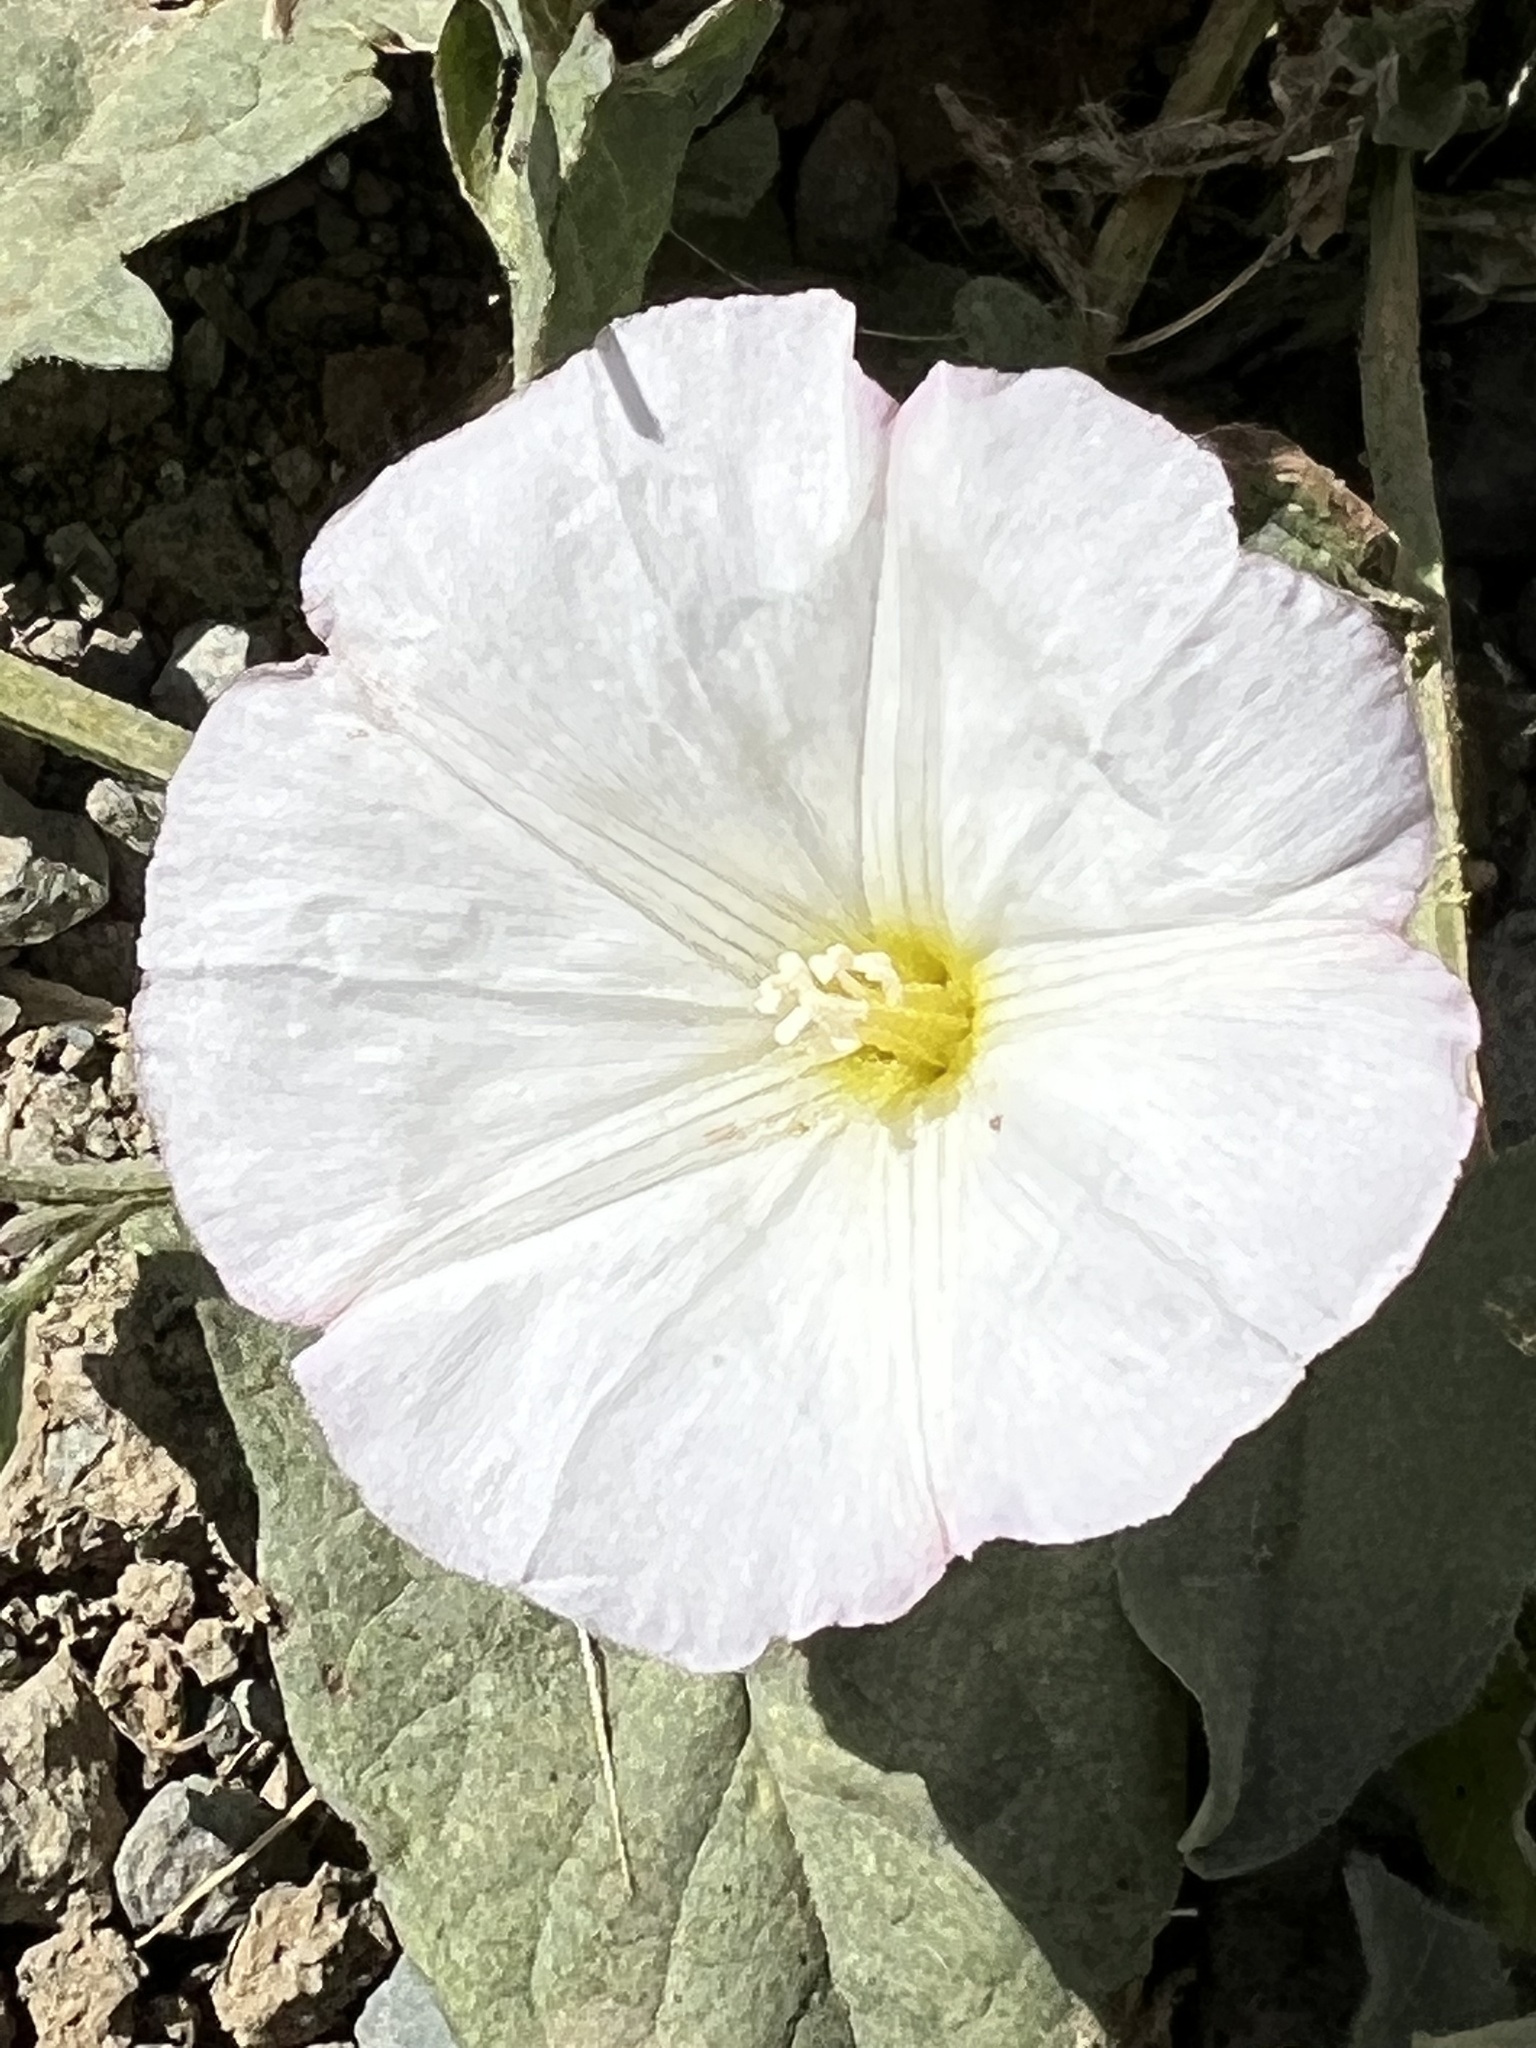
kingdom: Plantae
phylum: Tracheophyta
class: Magnoliopsida
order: Solanales
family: Convolvulaceae
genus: Convolvulus
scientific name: Convolvulus arvensis
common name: Field bindweed
